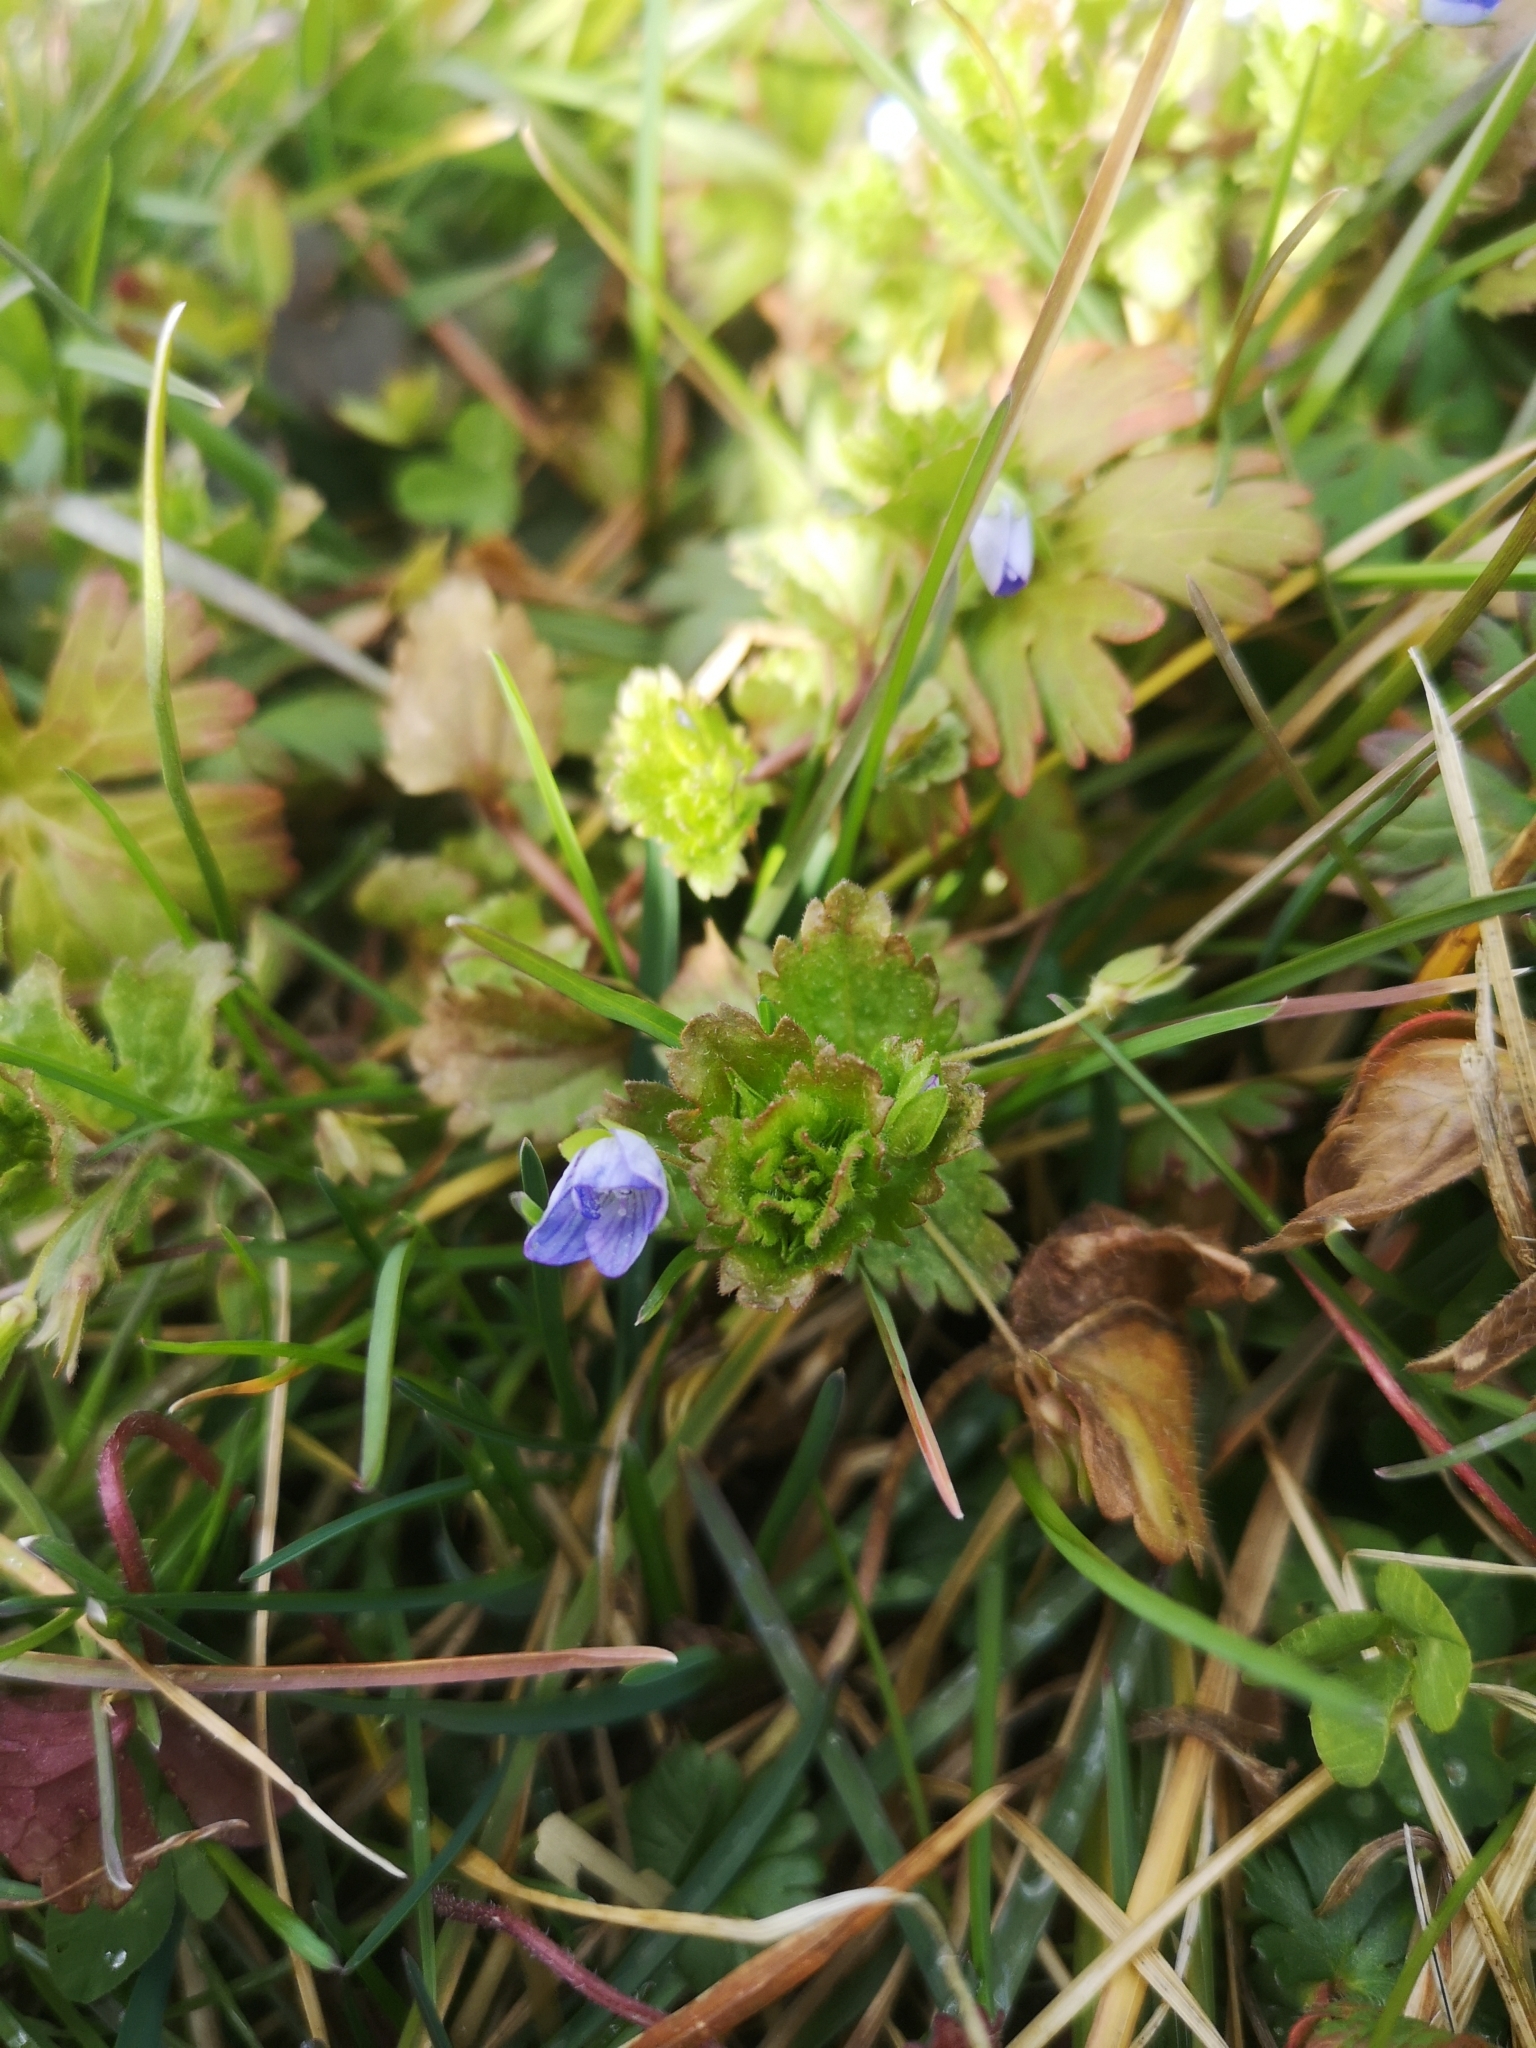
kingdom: Plantae
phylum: Tracheophyta
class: Magnoliopsida
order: Lamiales
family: Plantaginaceae
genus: Veronica
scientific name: Veronica persica
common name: Common field-speedwell
